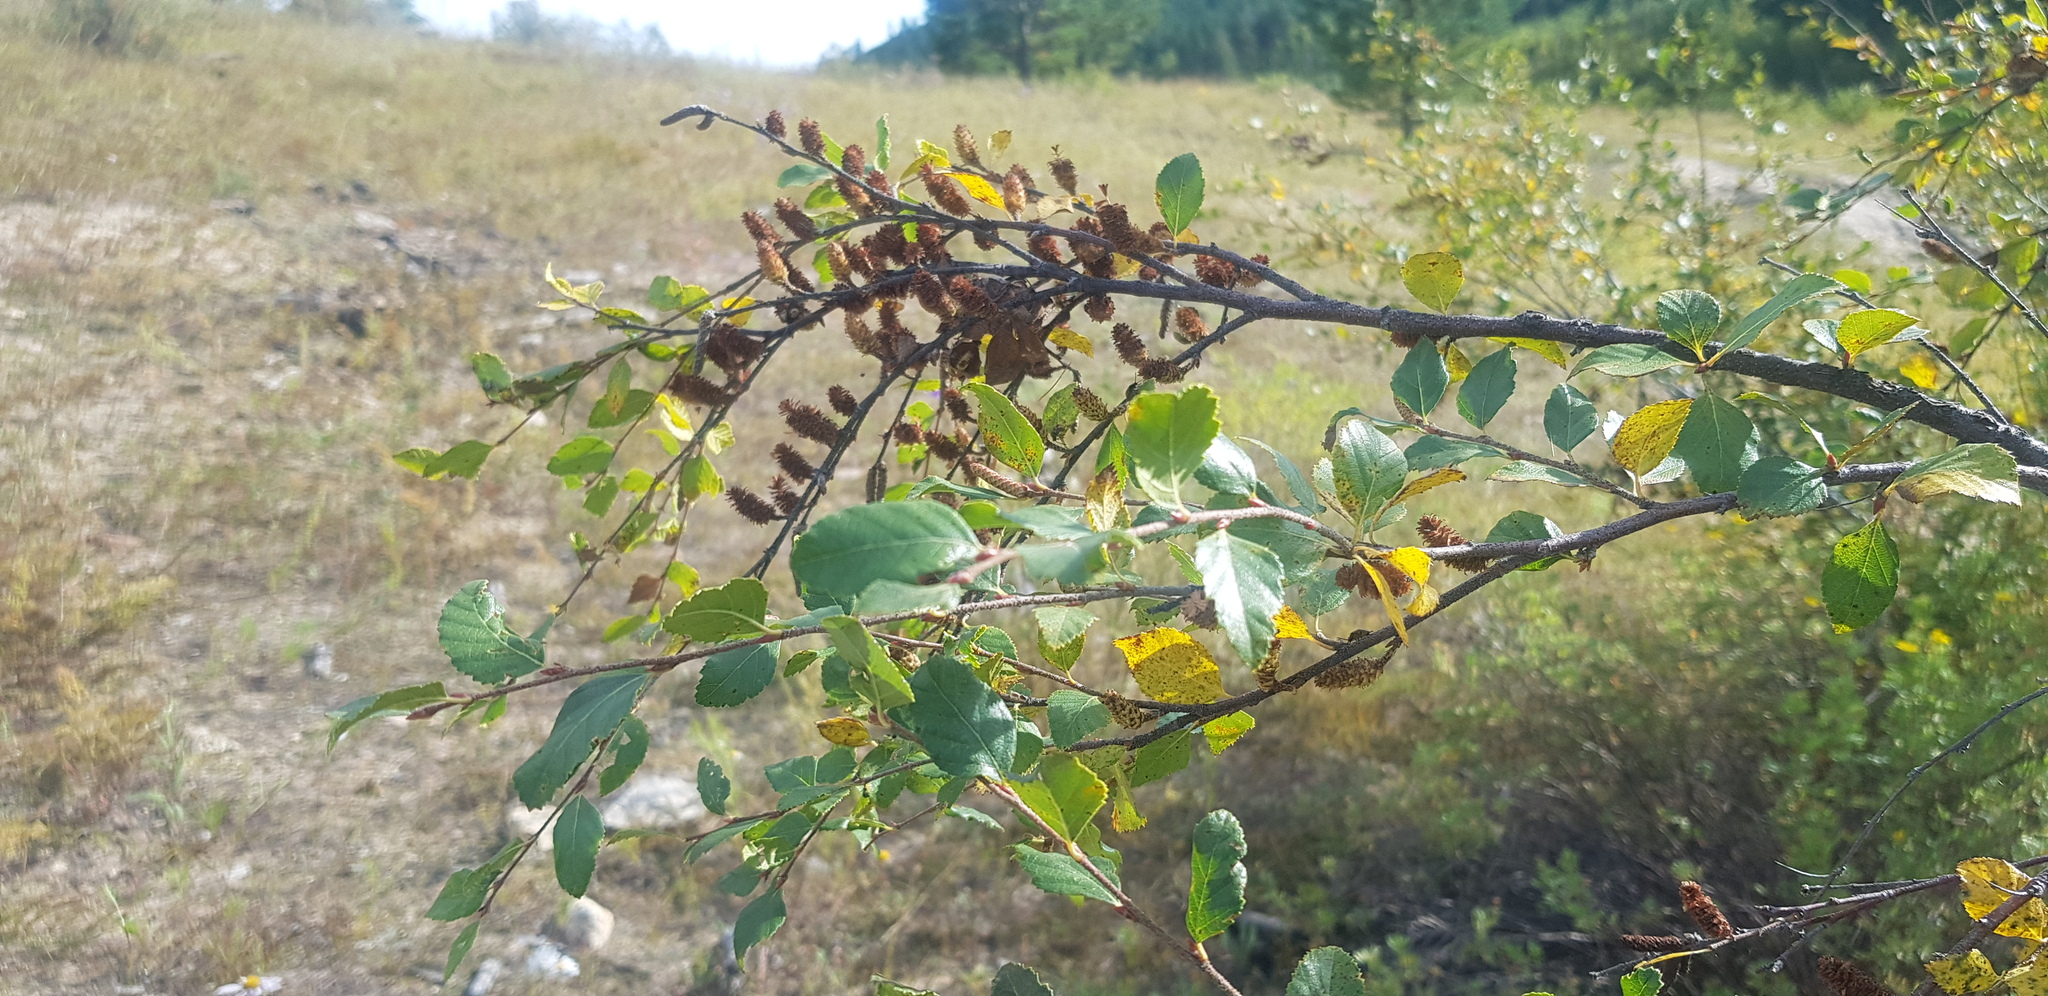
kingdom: Plantae
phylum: Tracheophyta
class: Magnoliopsida
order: Fagales
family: Betulaceae
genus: Betula
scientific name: Betula humilis
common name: Shrubby birch
